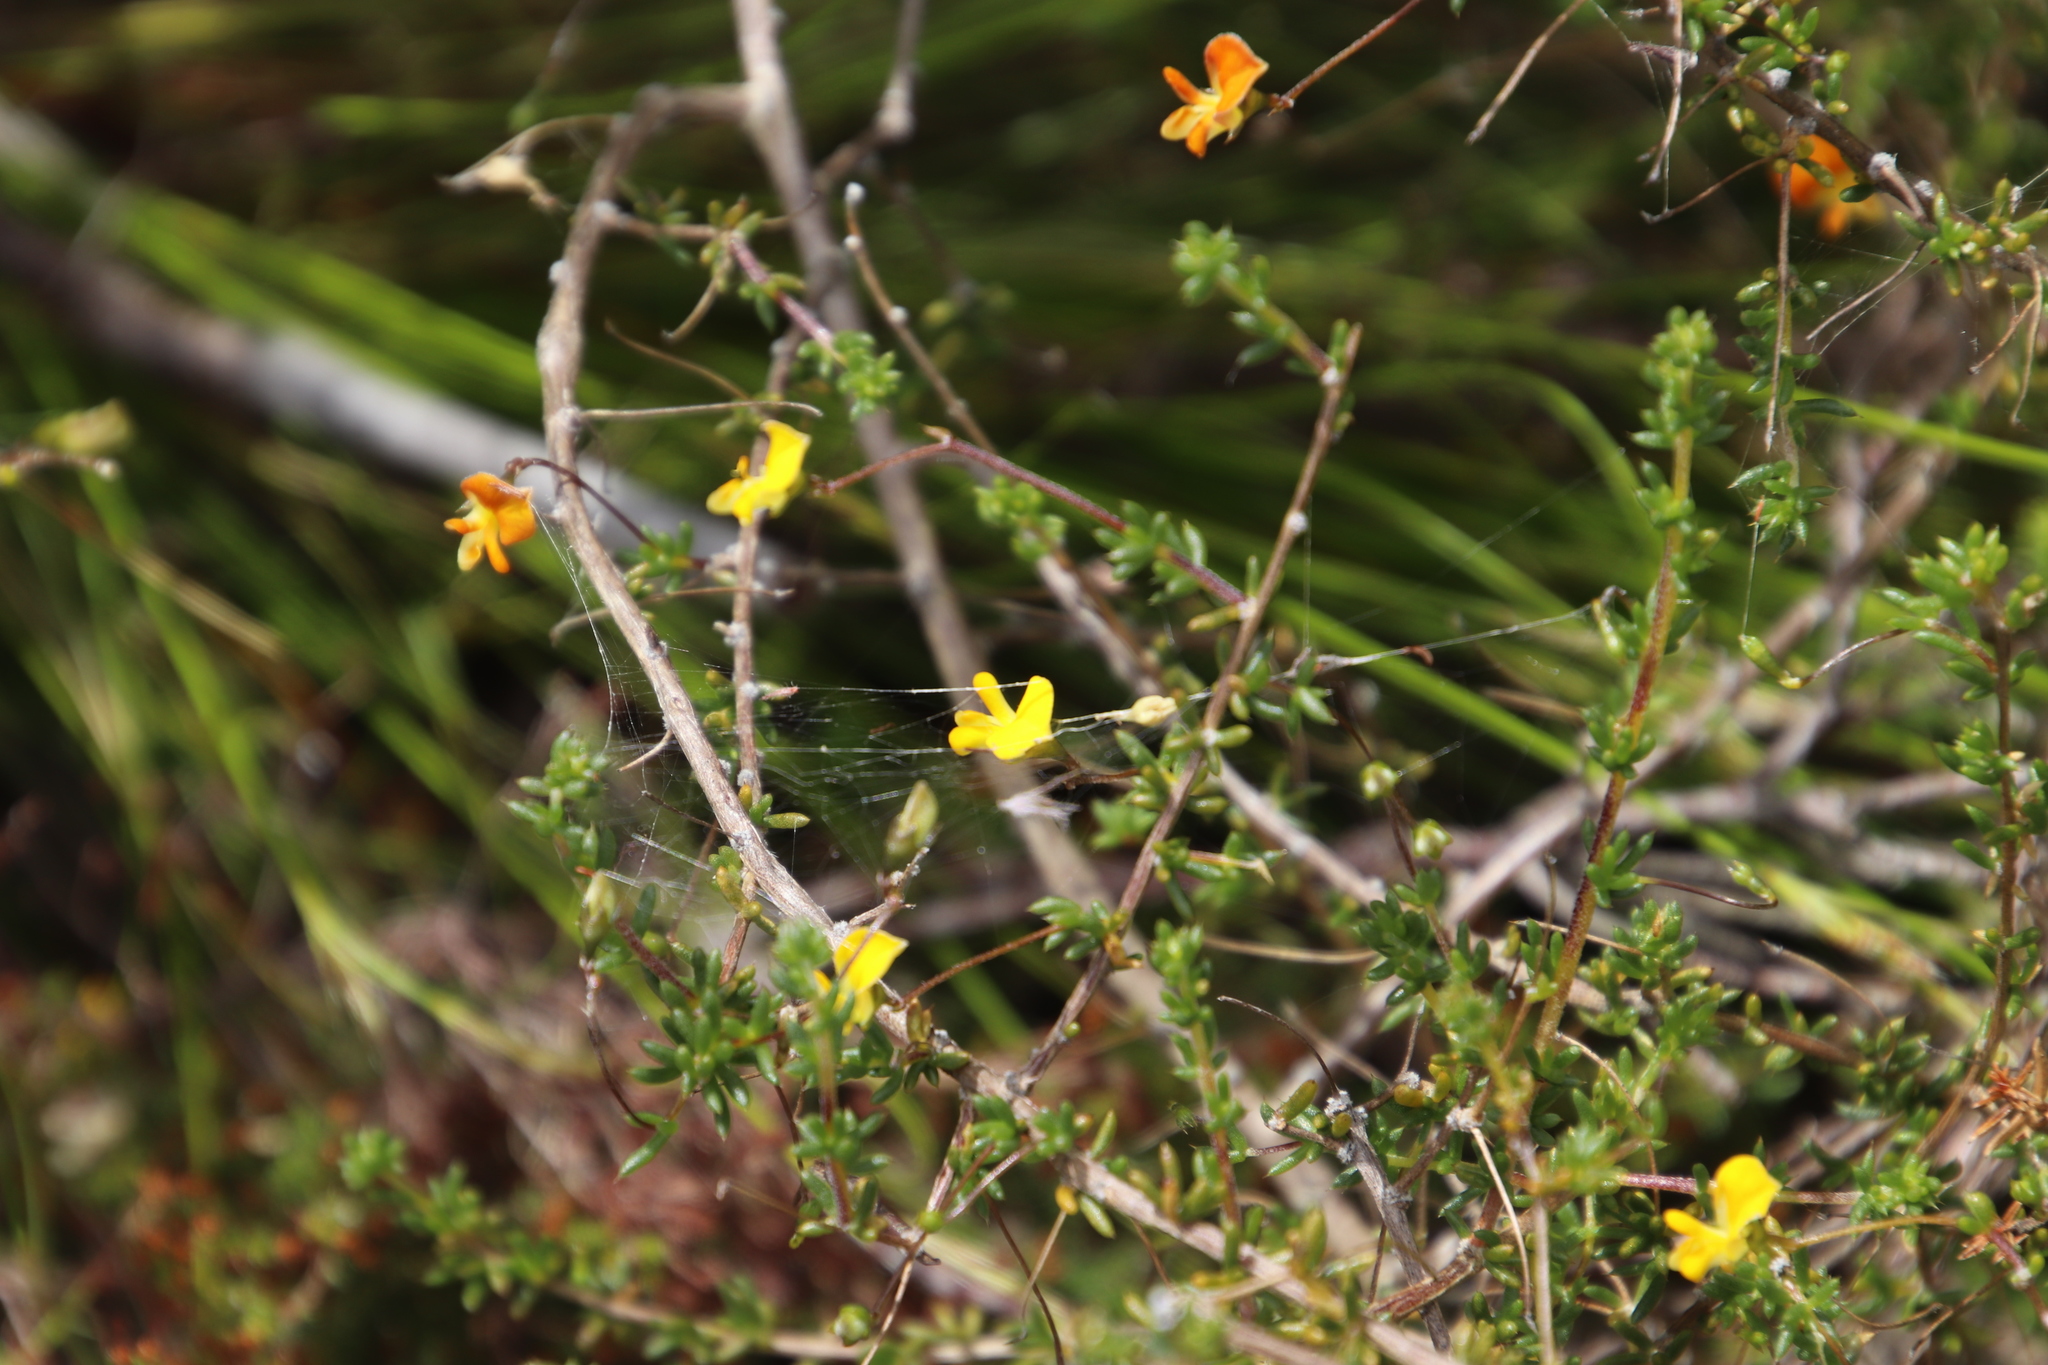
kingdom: Plantae
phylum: Tracheophyta
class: Magnoliopsida
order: Fabales
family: Fabaceae
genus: Aspalathus
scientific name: Aspalathus serpens
